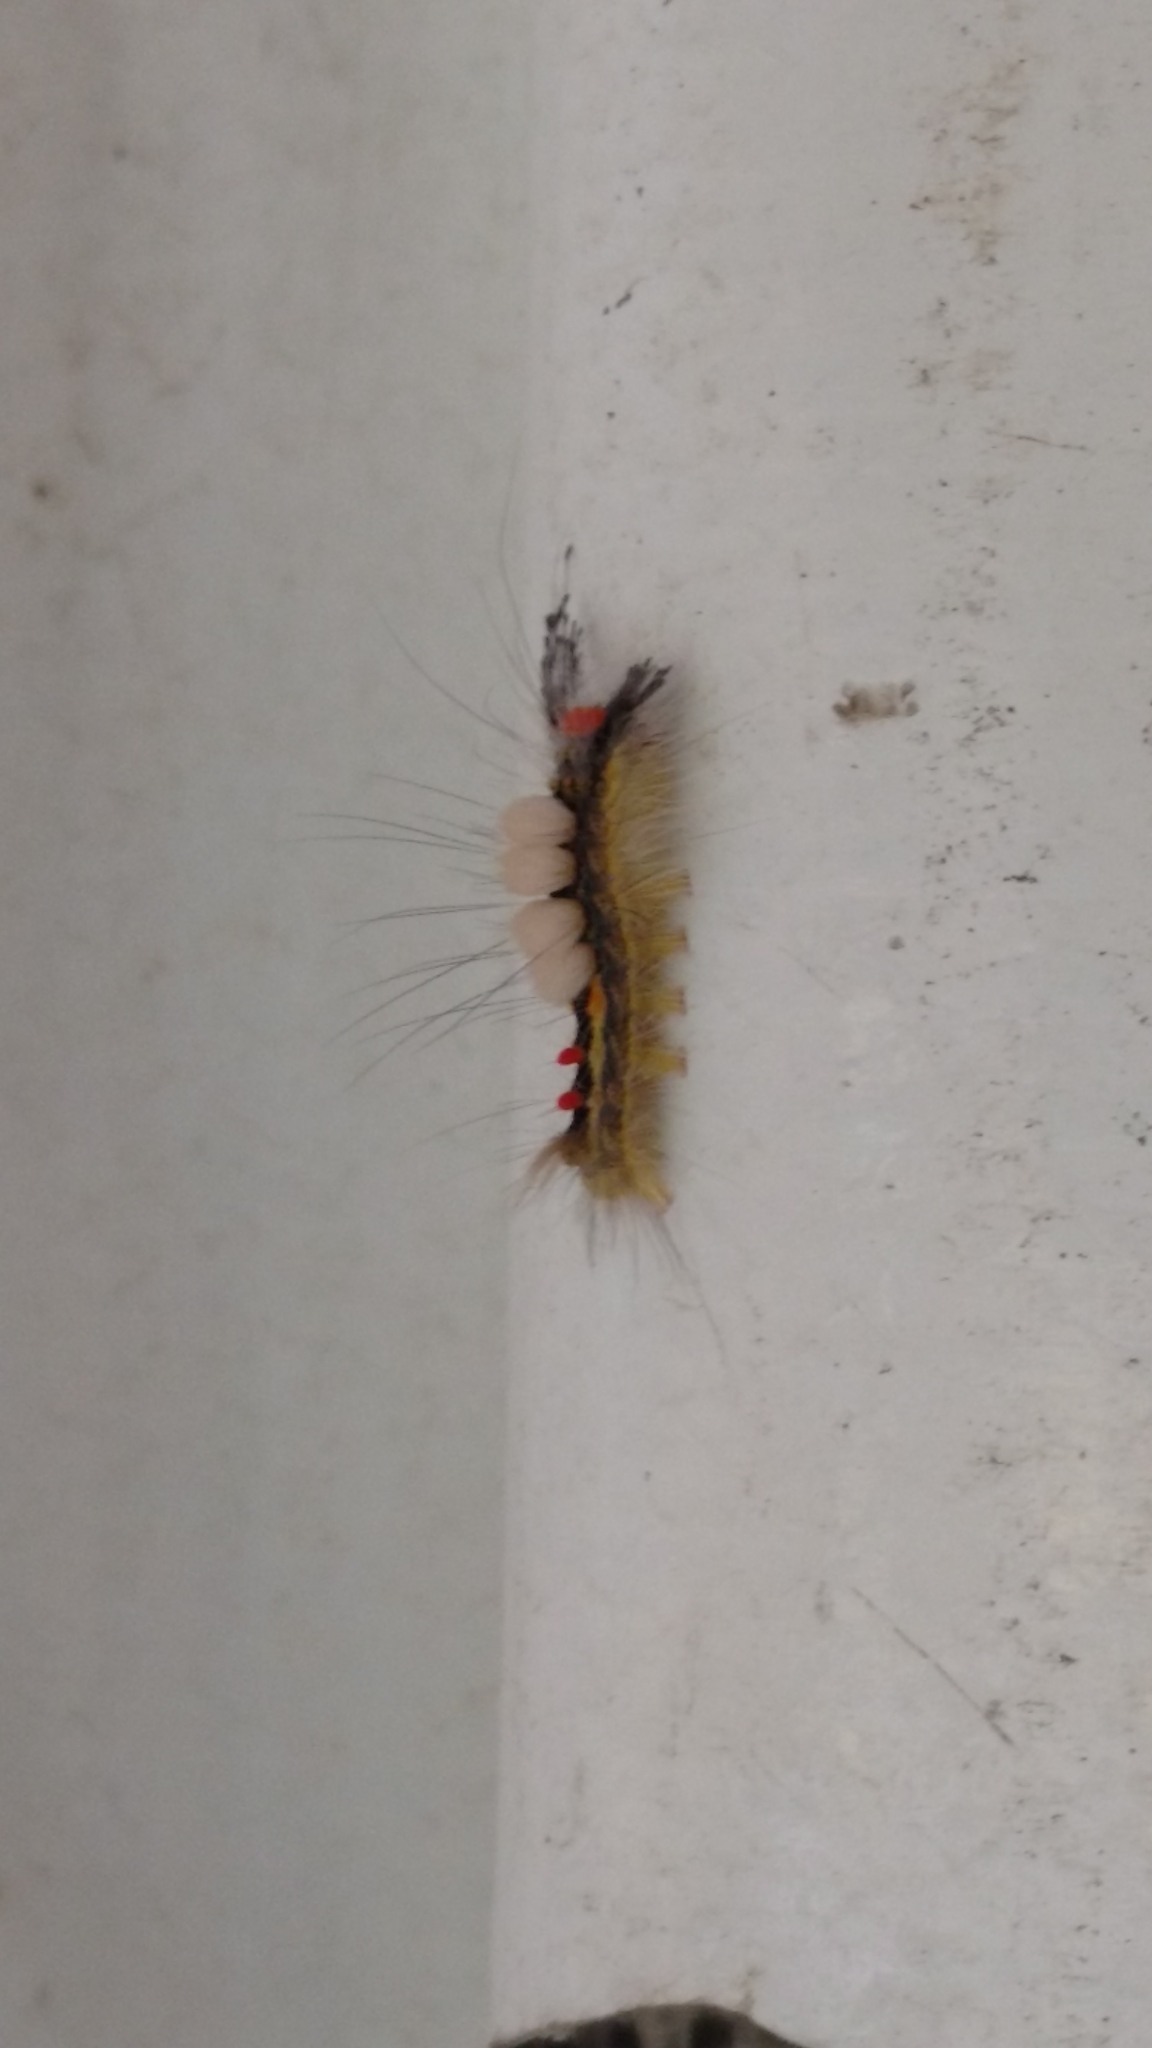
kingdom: Animalia
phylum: Arthropoda
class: Insecta
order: Lepidoptera
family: Erebidae
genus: Orgyia
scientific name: Orgyia leucostigma
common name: White-marked tussock moth
